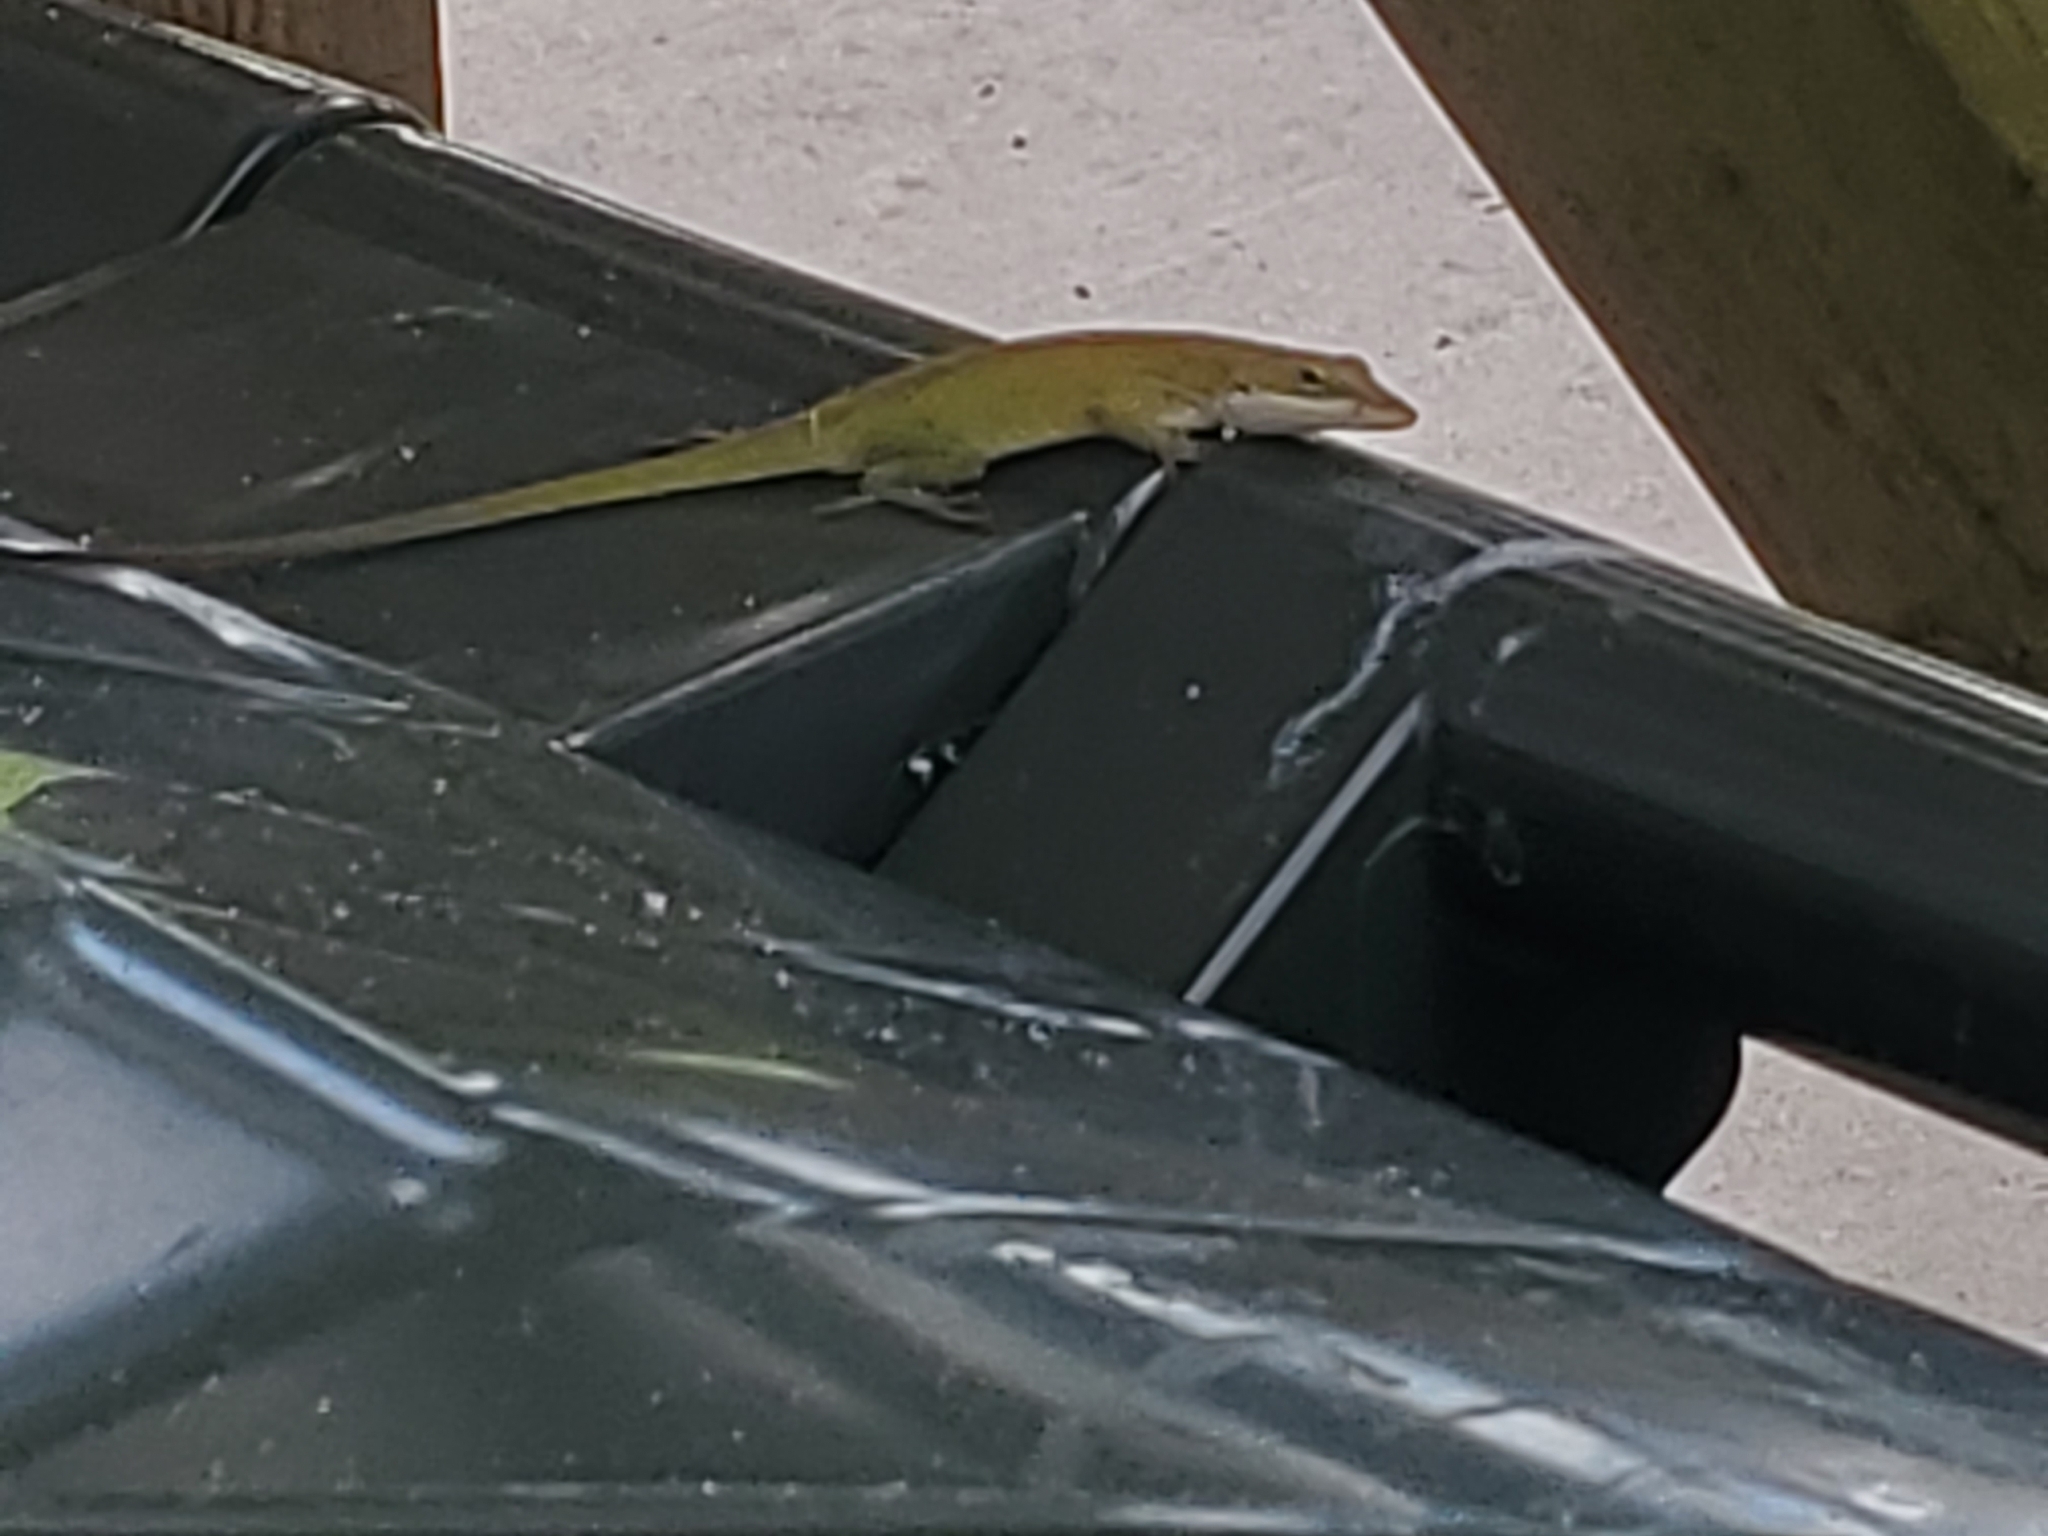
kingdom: Animalia
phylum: Chordata
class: Squamata
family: Dactyloidae
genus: Anolis
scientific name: Anolis carolinensis
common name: Green anole
